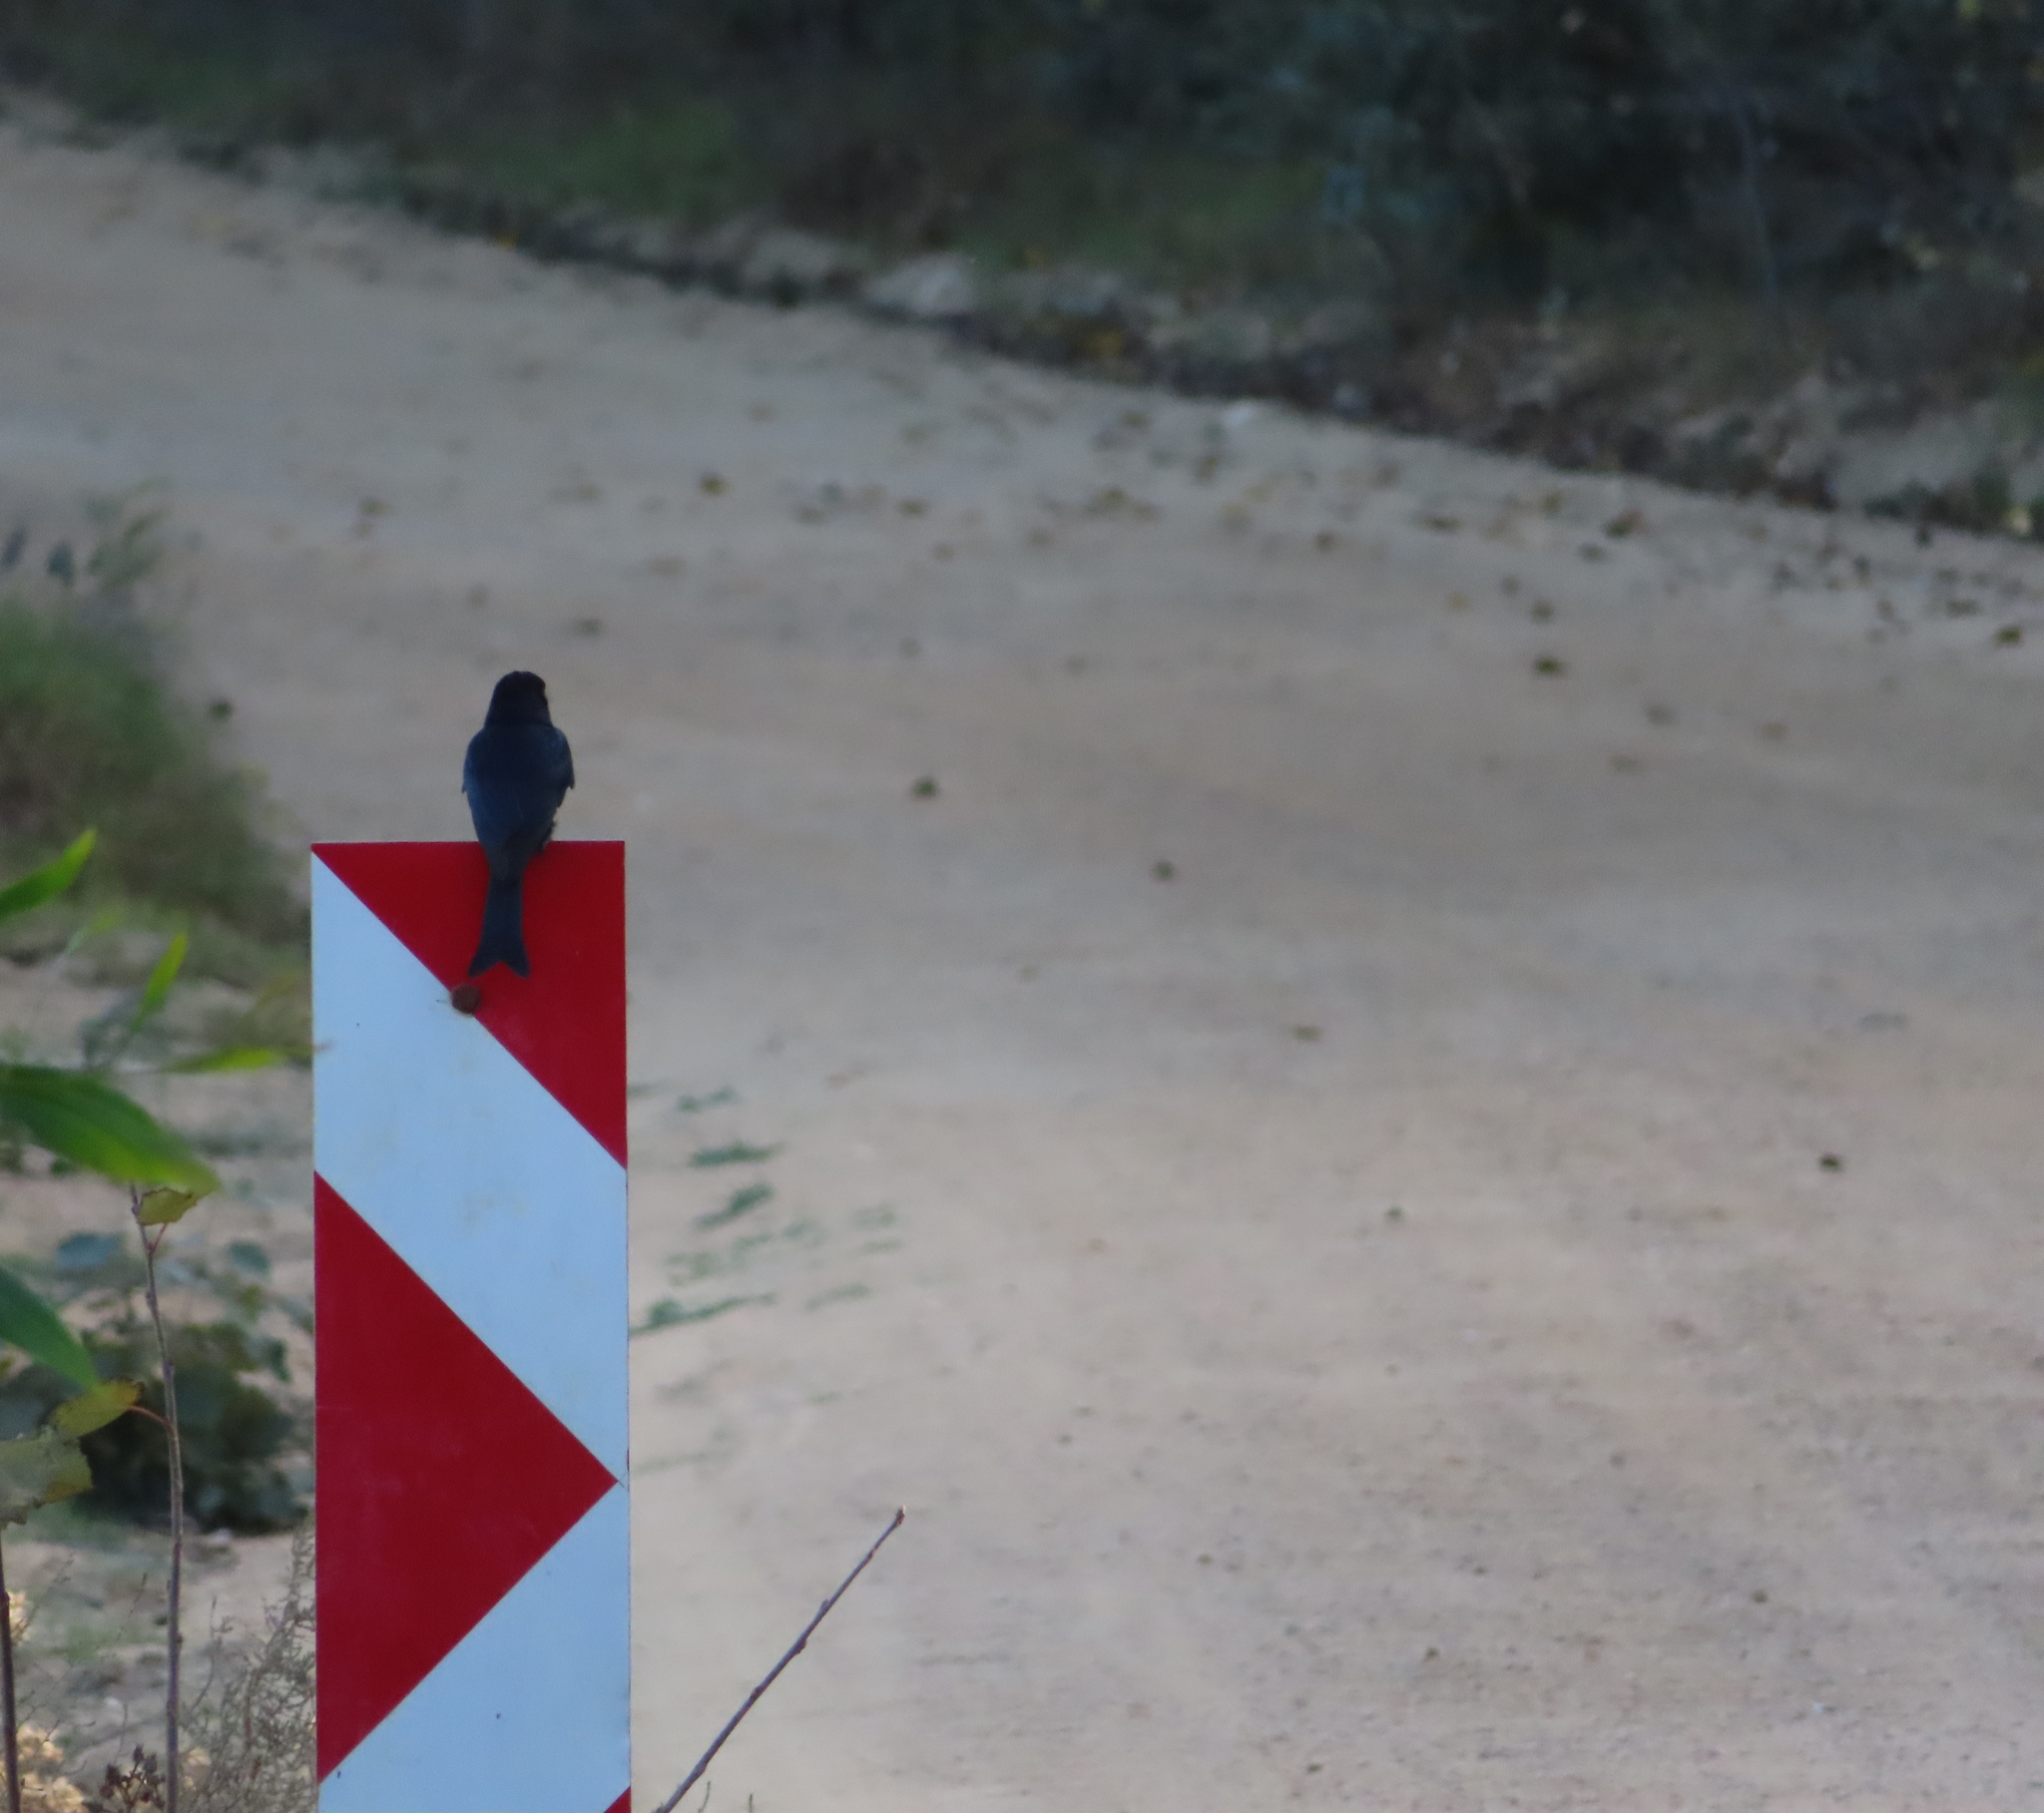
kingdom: Animalia
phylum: Chordata
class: Aves
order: Passeriformes
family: Dicruridae
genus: Dicrurus
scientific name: Dicrurus adsimilis
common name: Fork-tailed drongo
